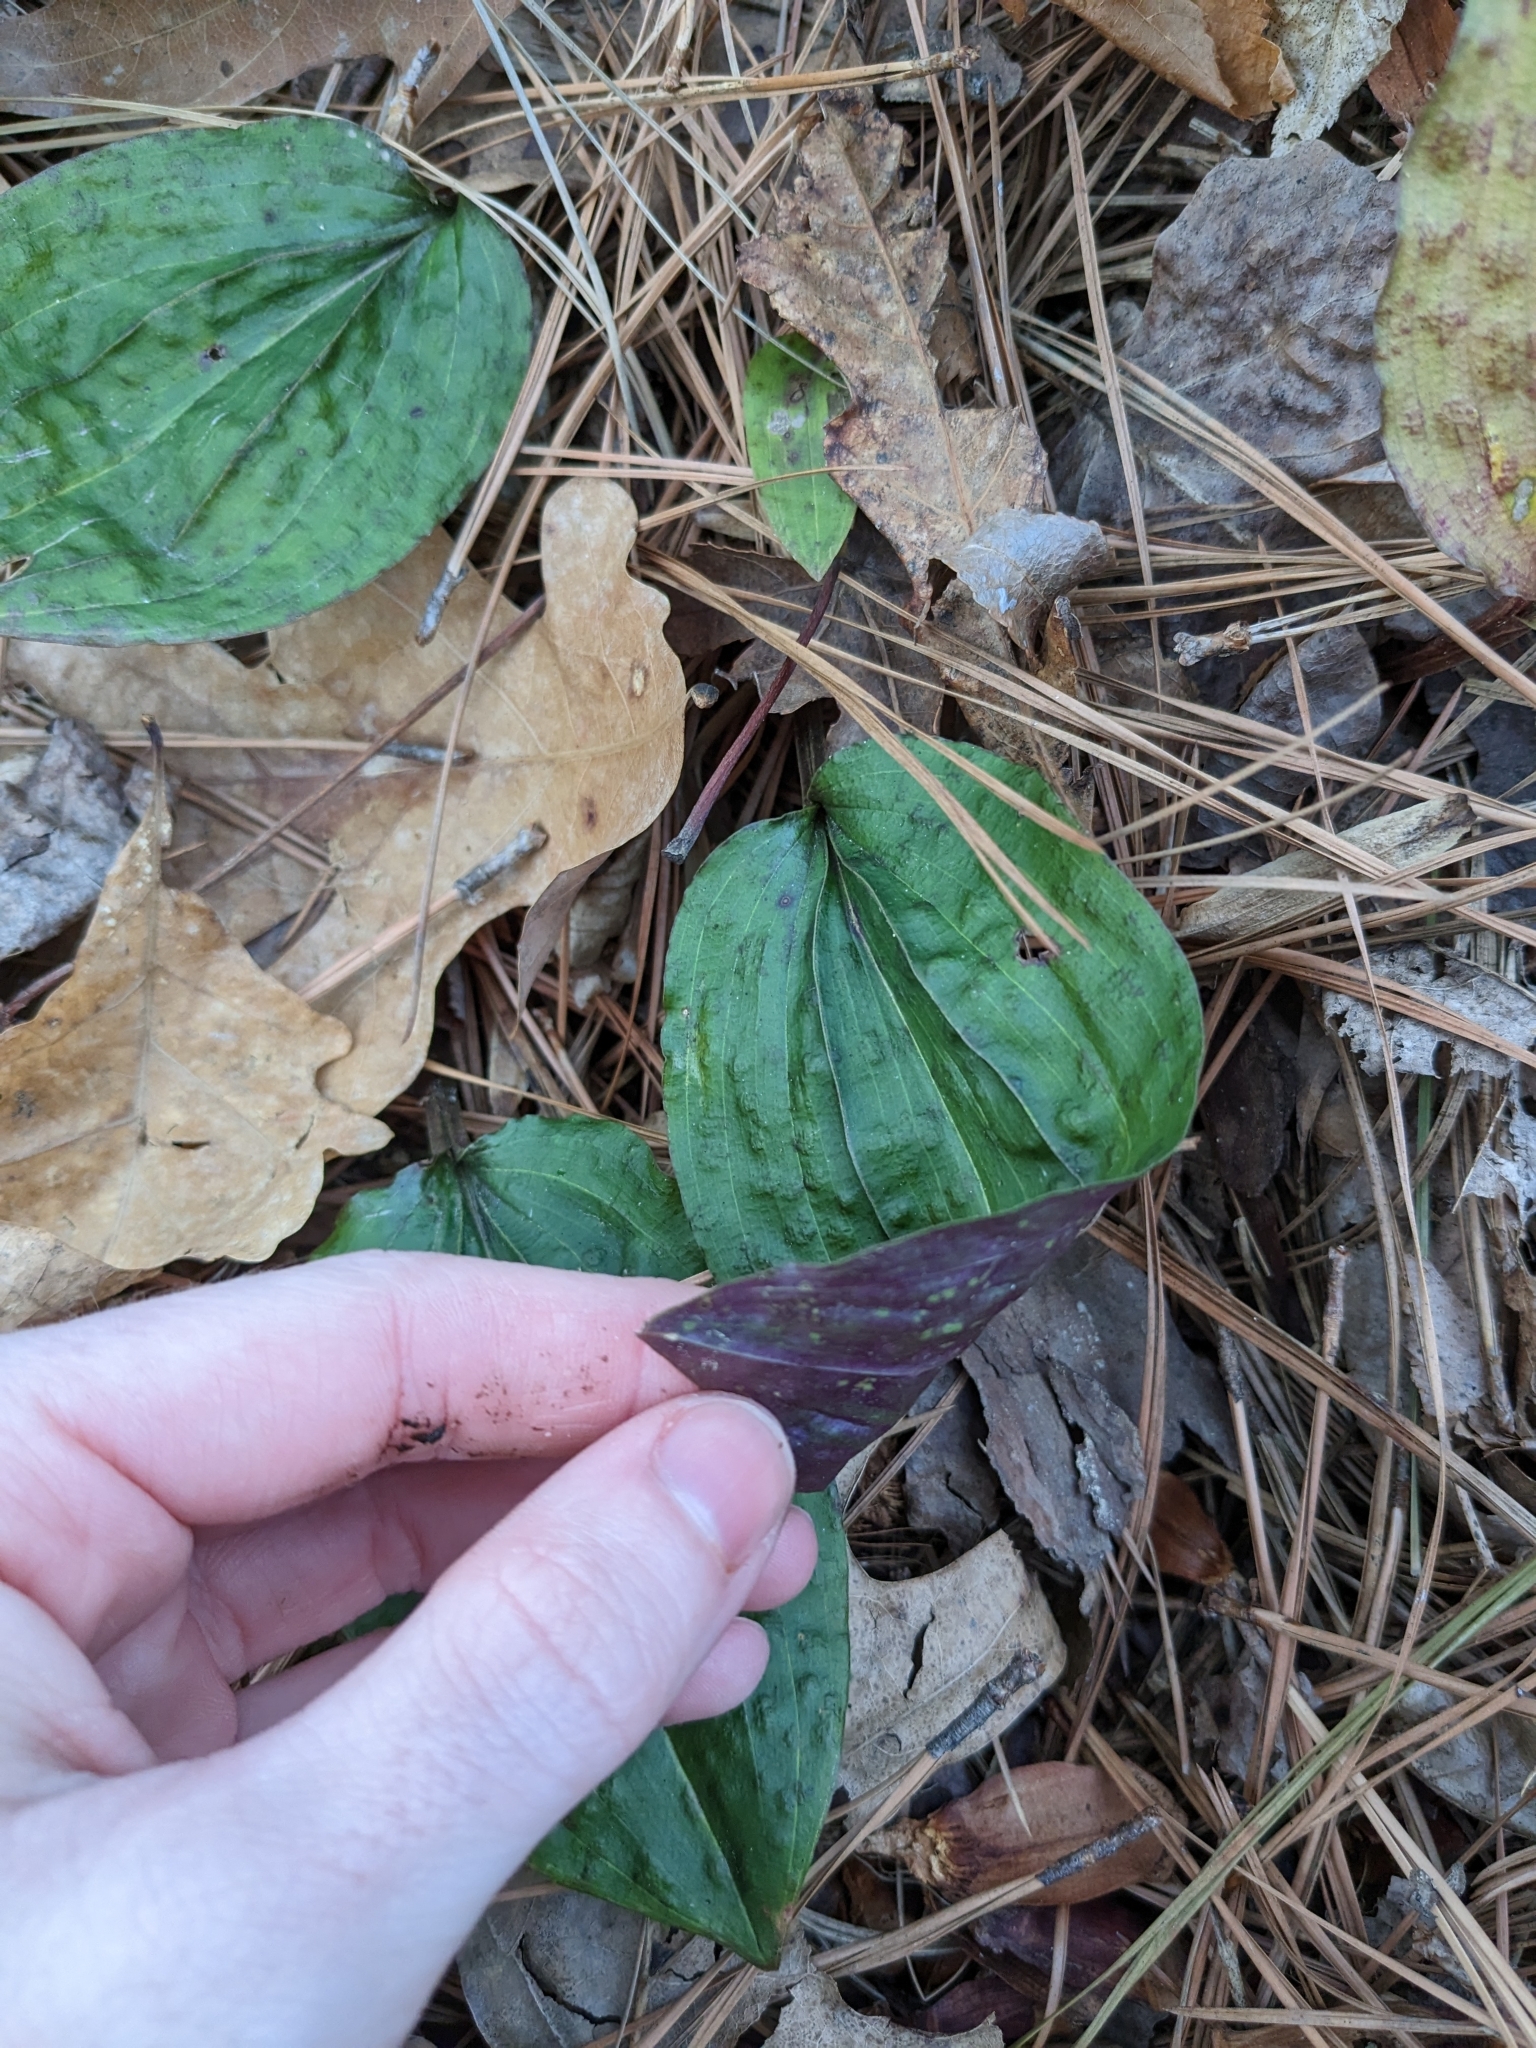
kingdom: Plantae
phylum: Tracheophyta
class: Liliopsida
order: Asparagales
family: Orchidaceae
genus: Tipularia
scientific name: Tipularia discolor
